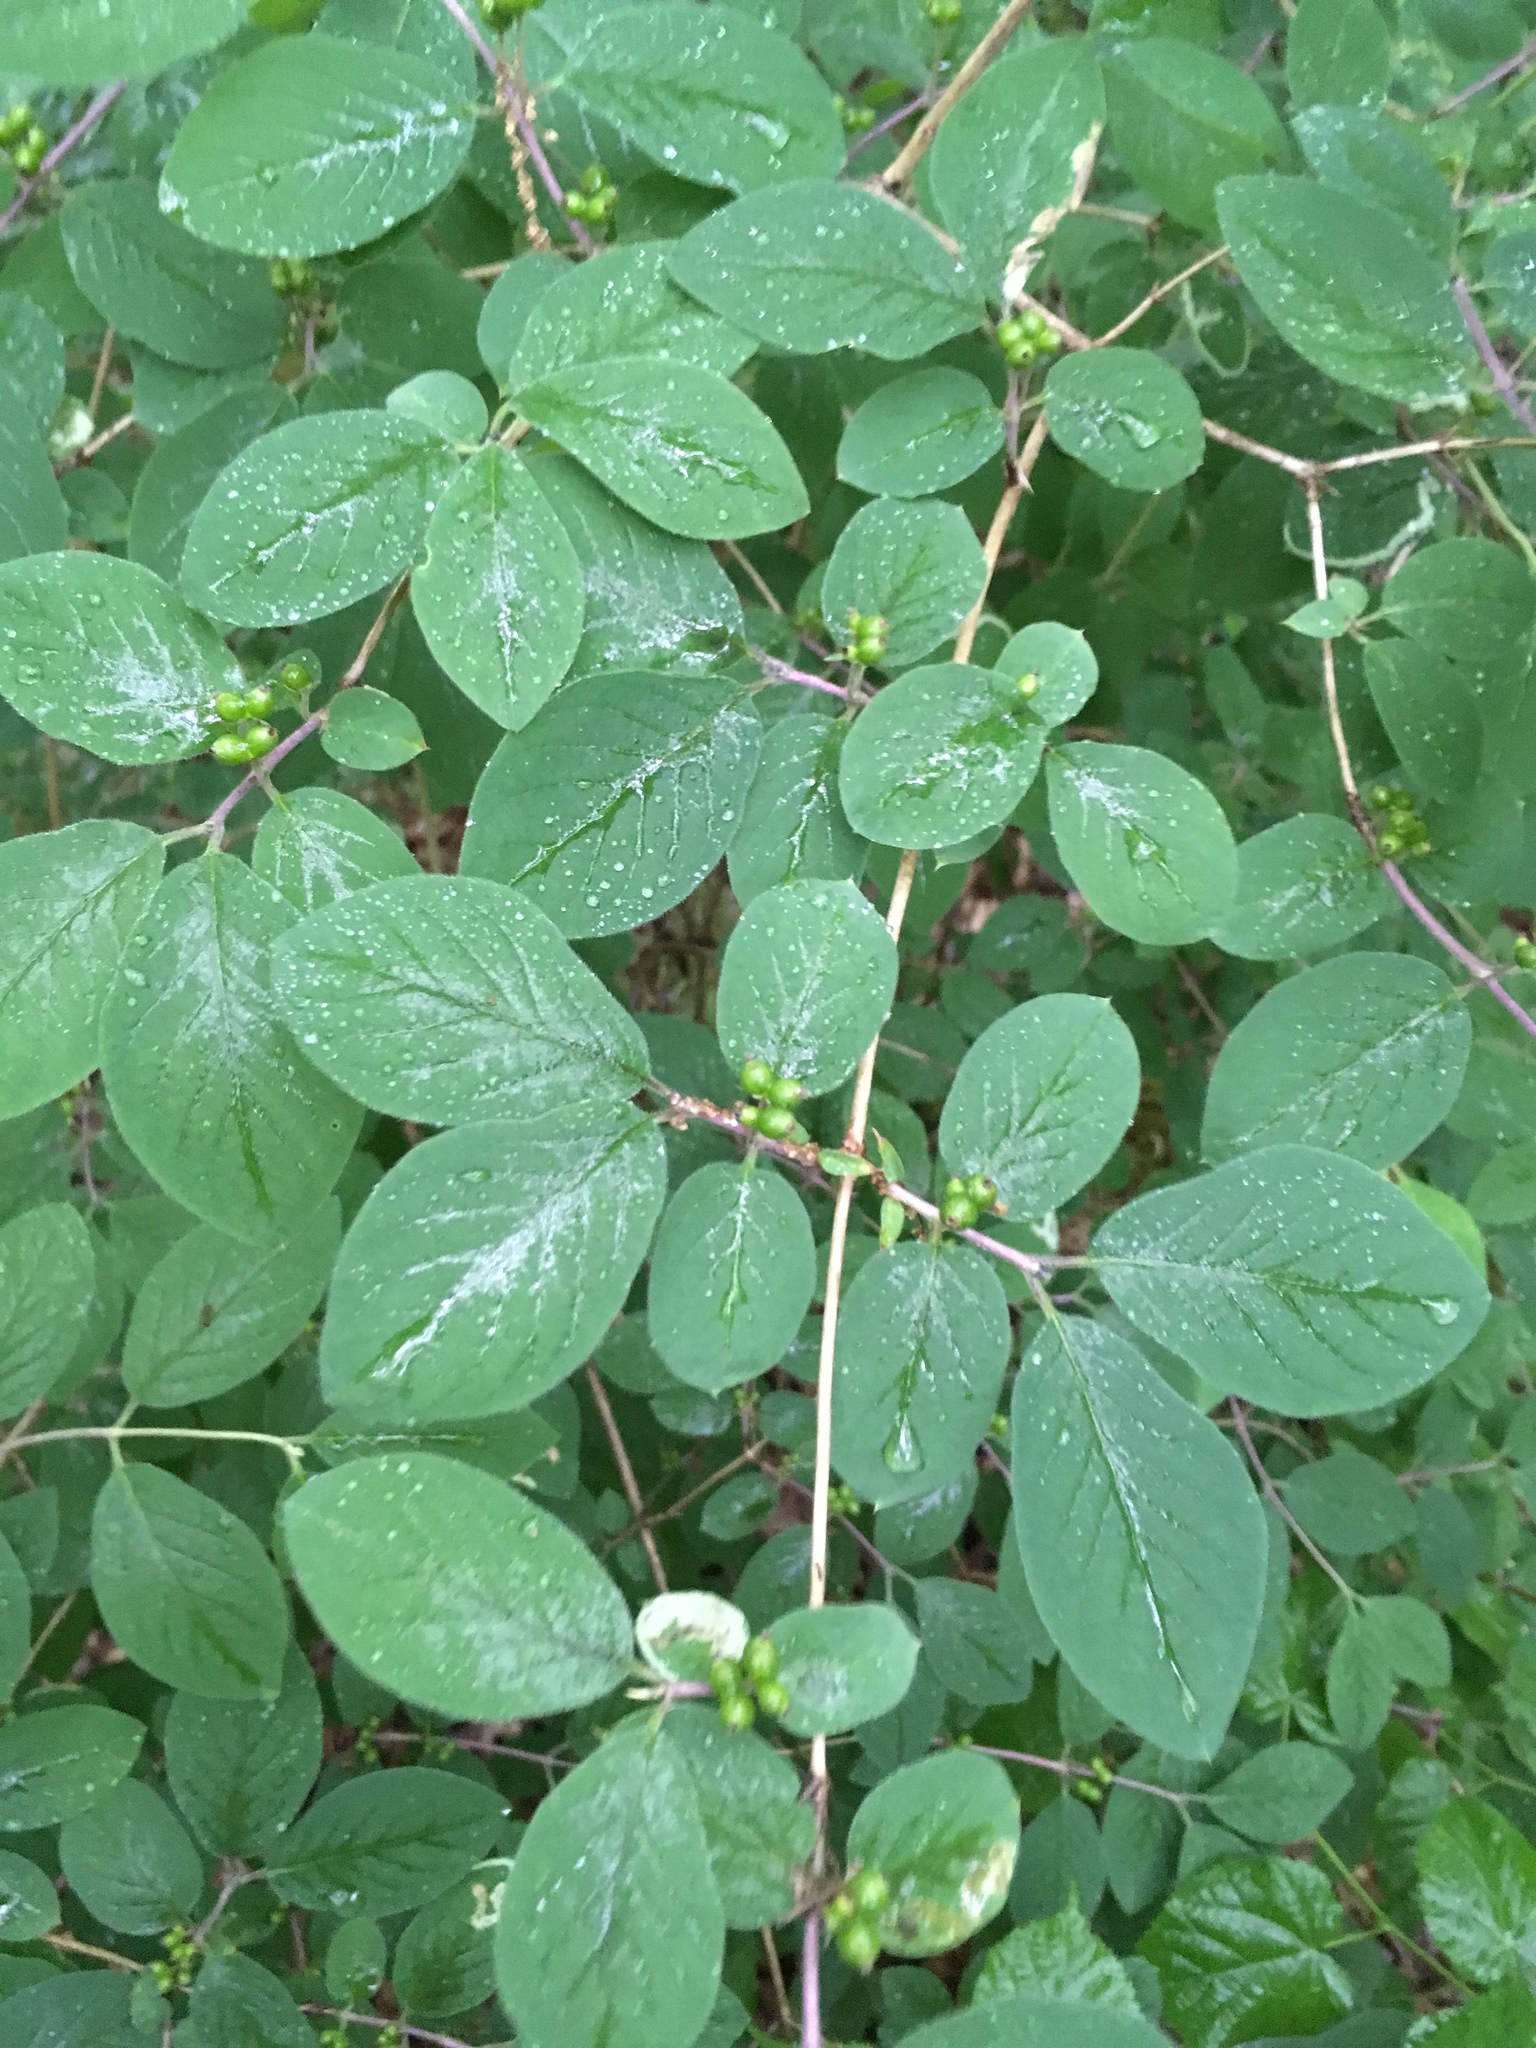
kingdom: Plantae
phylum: Tracheophyta
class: Magnoliopsida
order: Dipsacales
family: Caprifoliaceae
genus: Lonicera
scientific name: Lonicera xylosteum
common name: Fly honeysuckle
